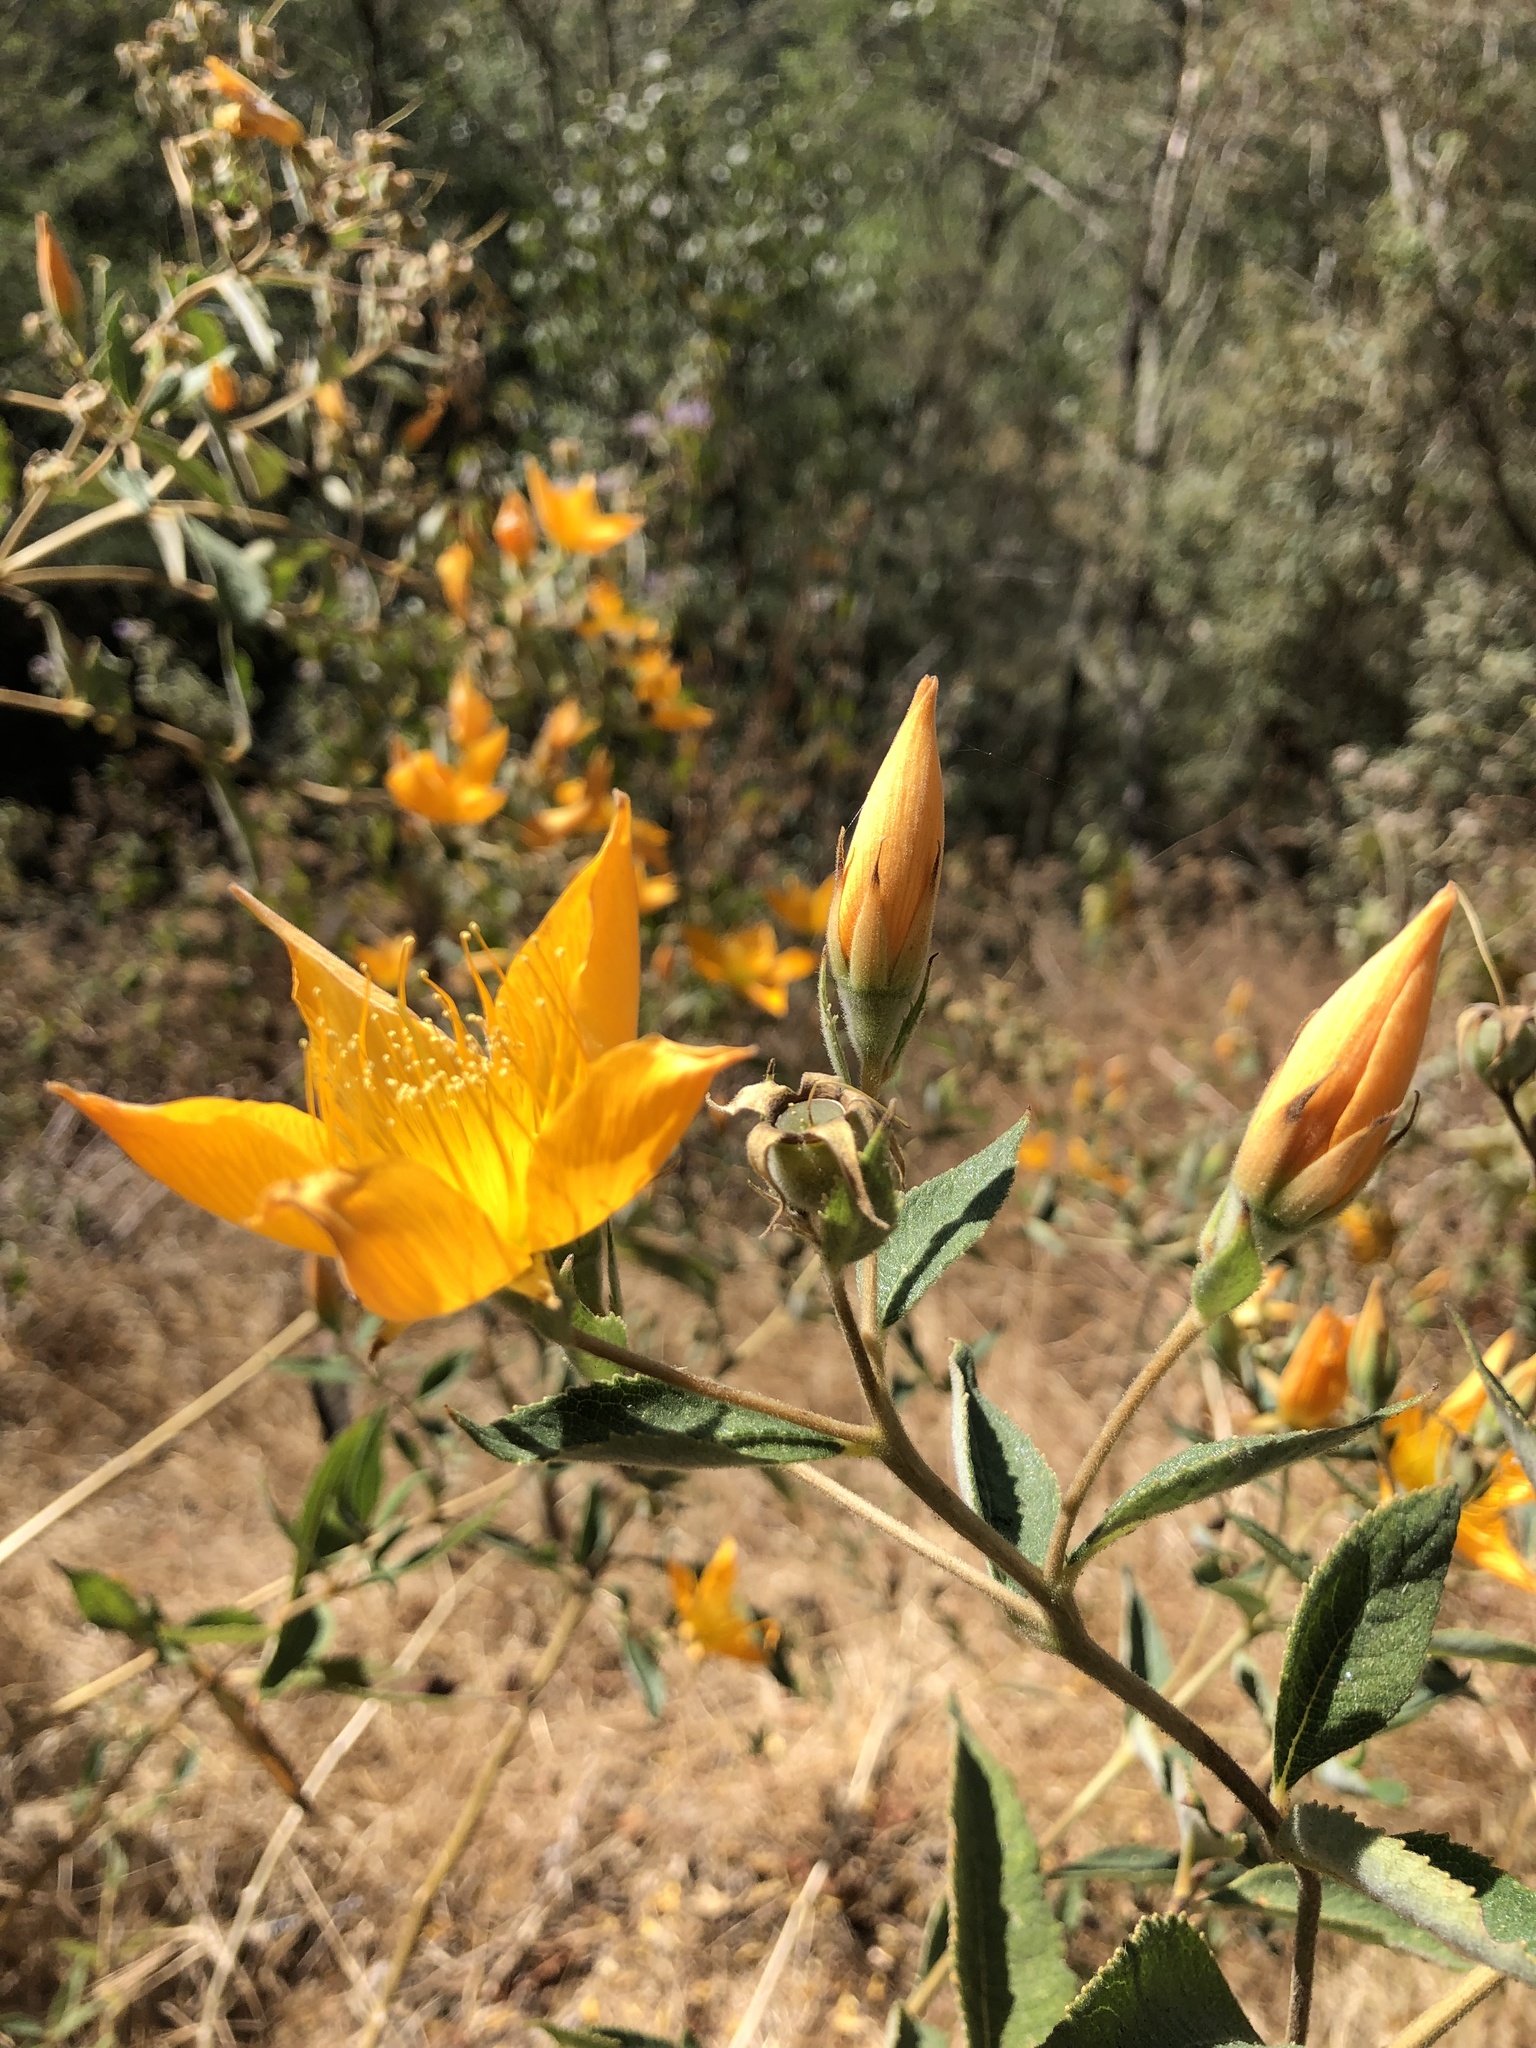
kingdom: Plantae
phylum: Tracheophyta
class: Magnoliopsida
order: Cornales
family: Loasaceae
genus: Mentzelia
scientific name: Mentzelia arborescens
